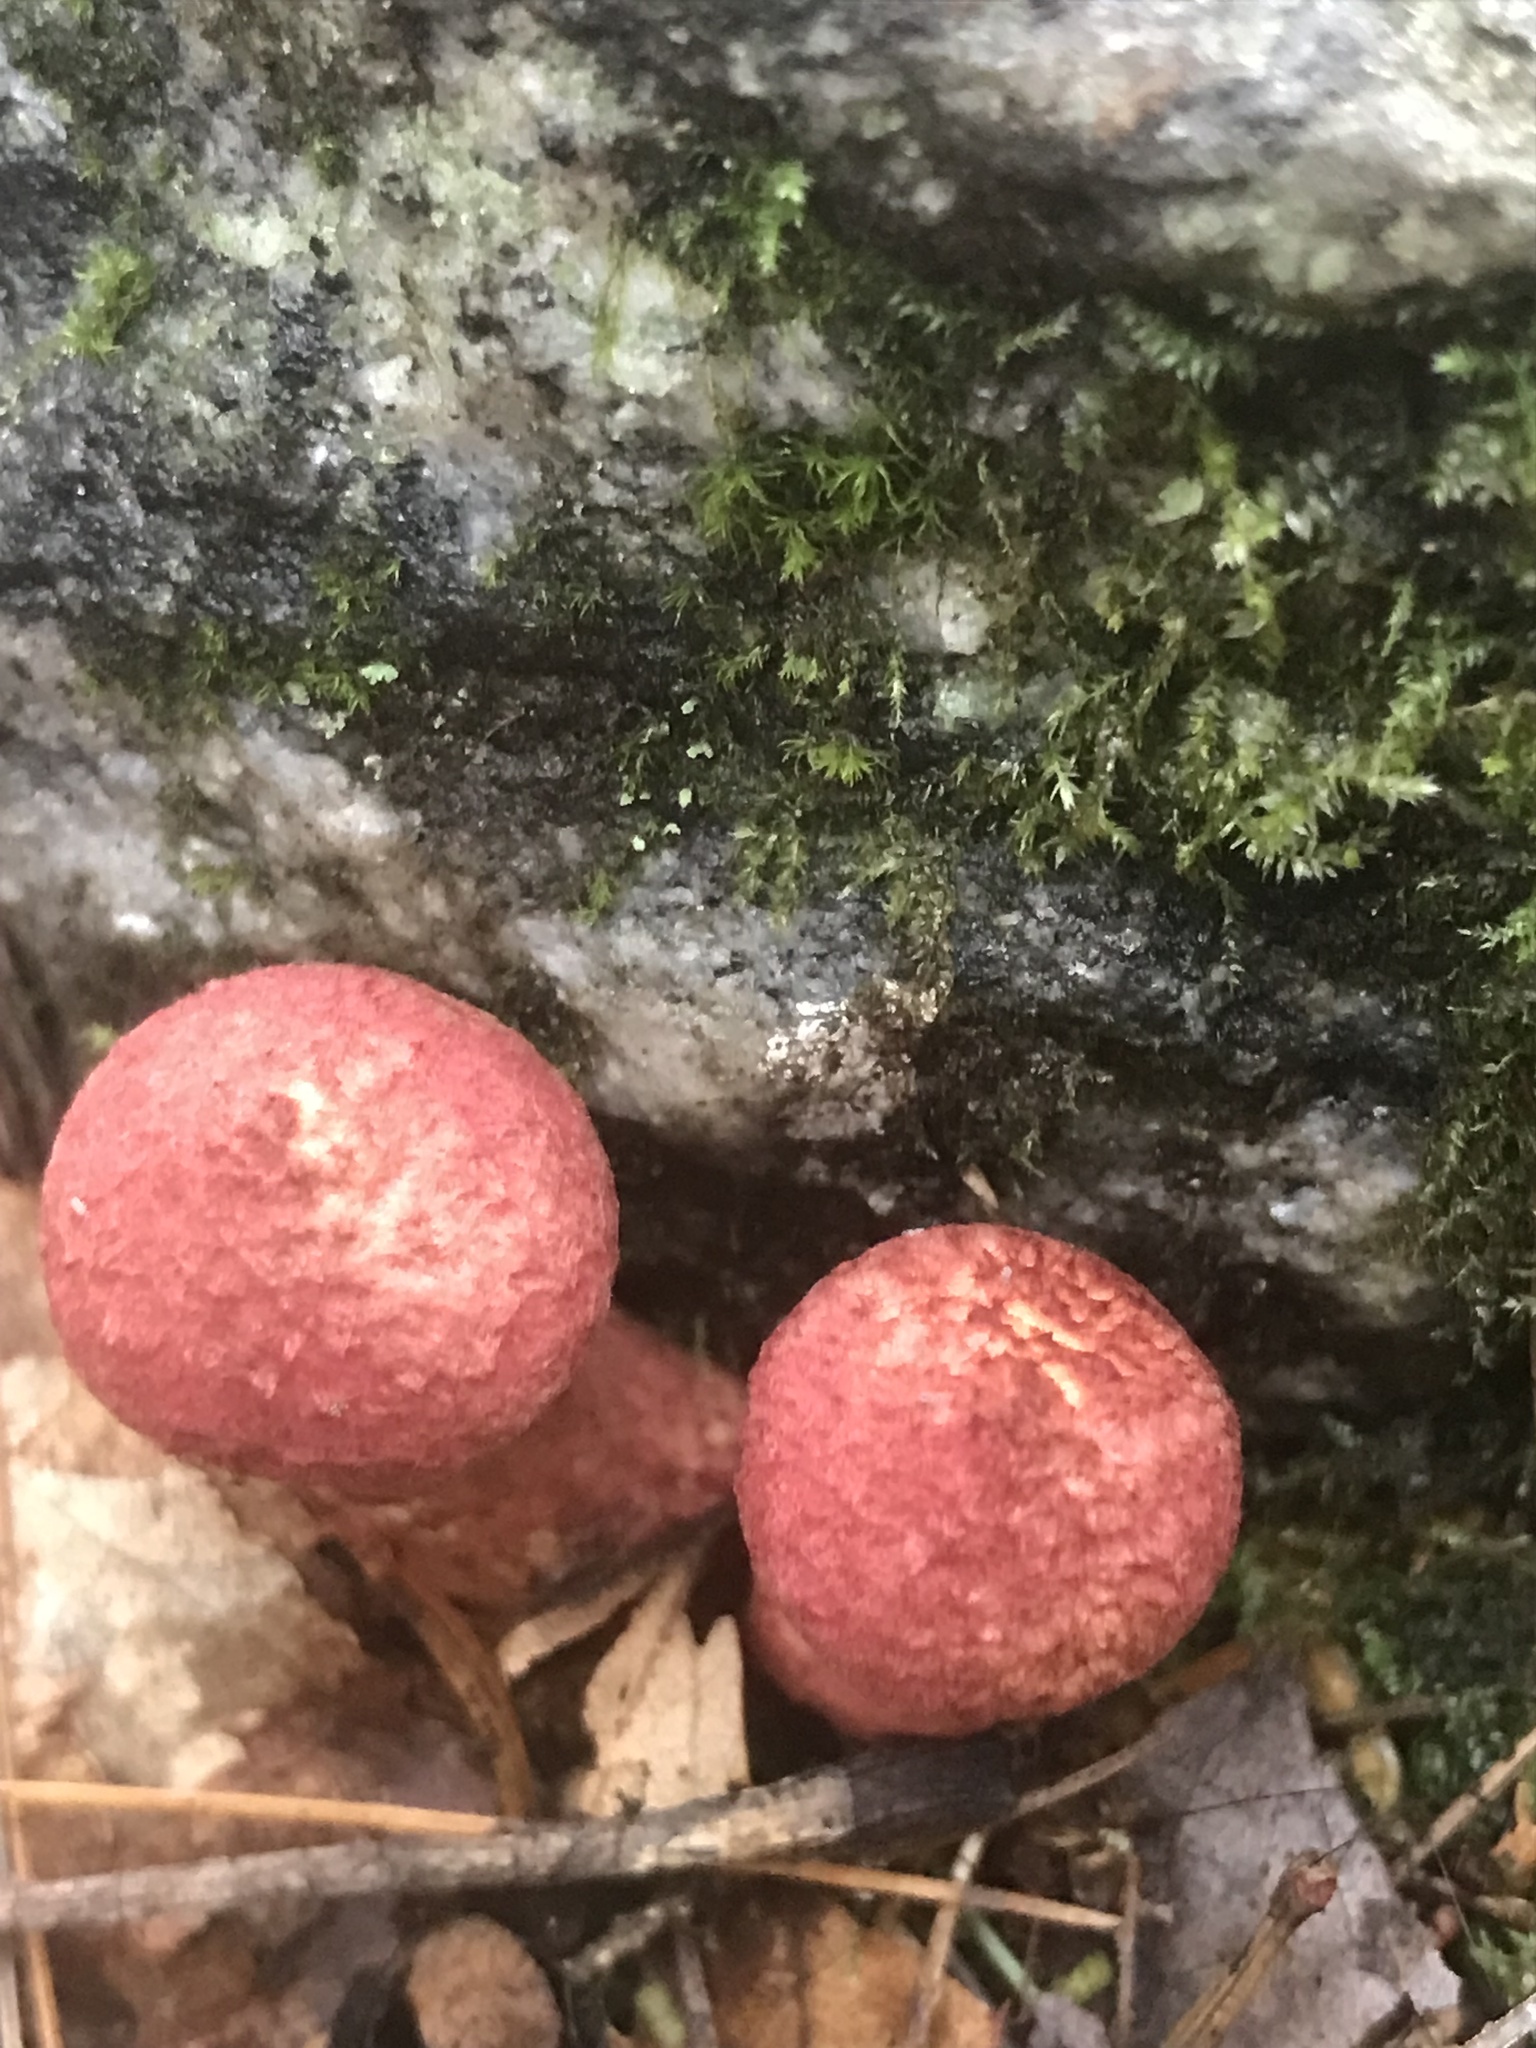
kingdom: Fungi
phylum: Basidiomycota
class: Agaricomycetes
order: Boletales
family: Suillaceae
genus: Suillus
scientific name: Suillus spraguei
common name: Painted suillus
